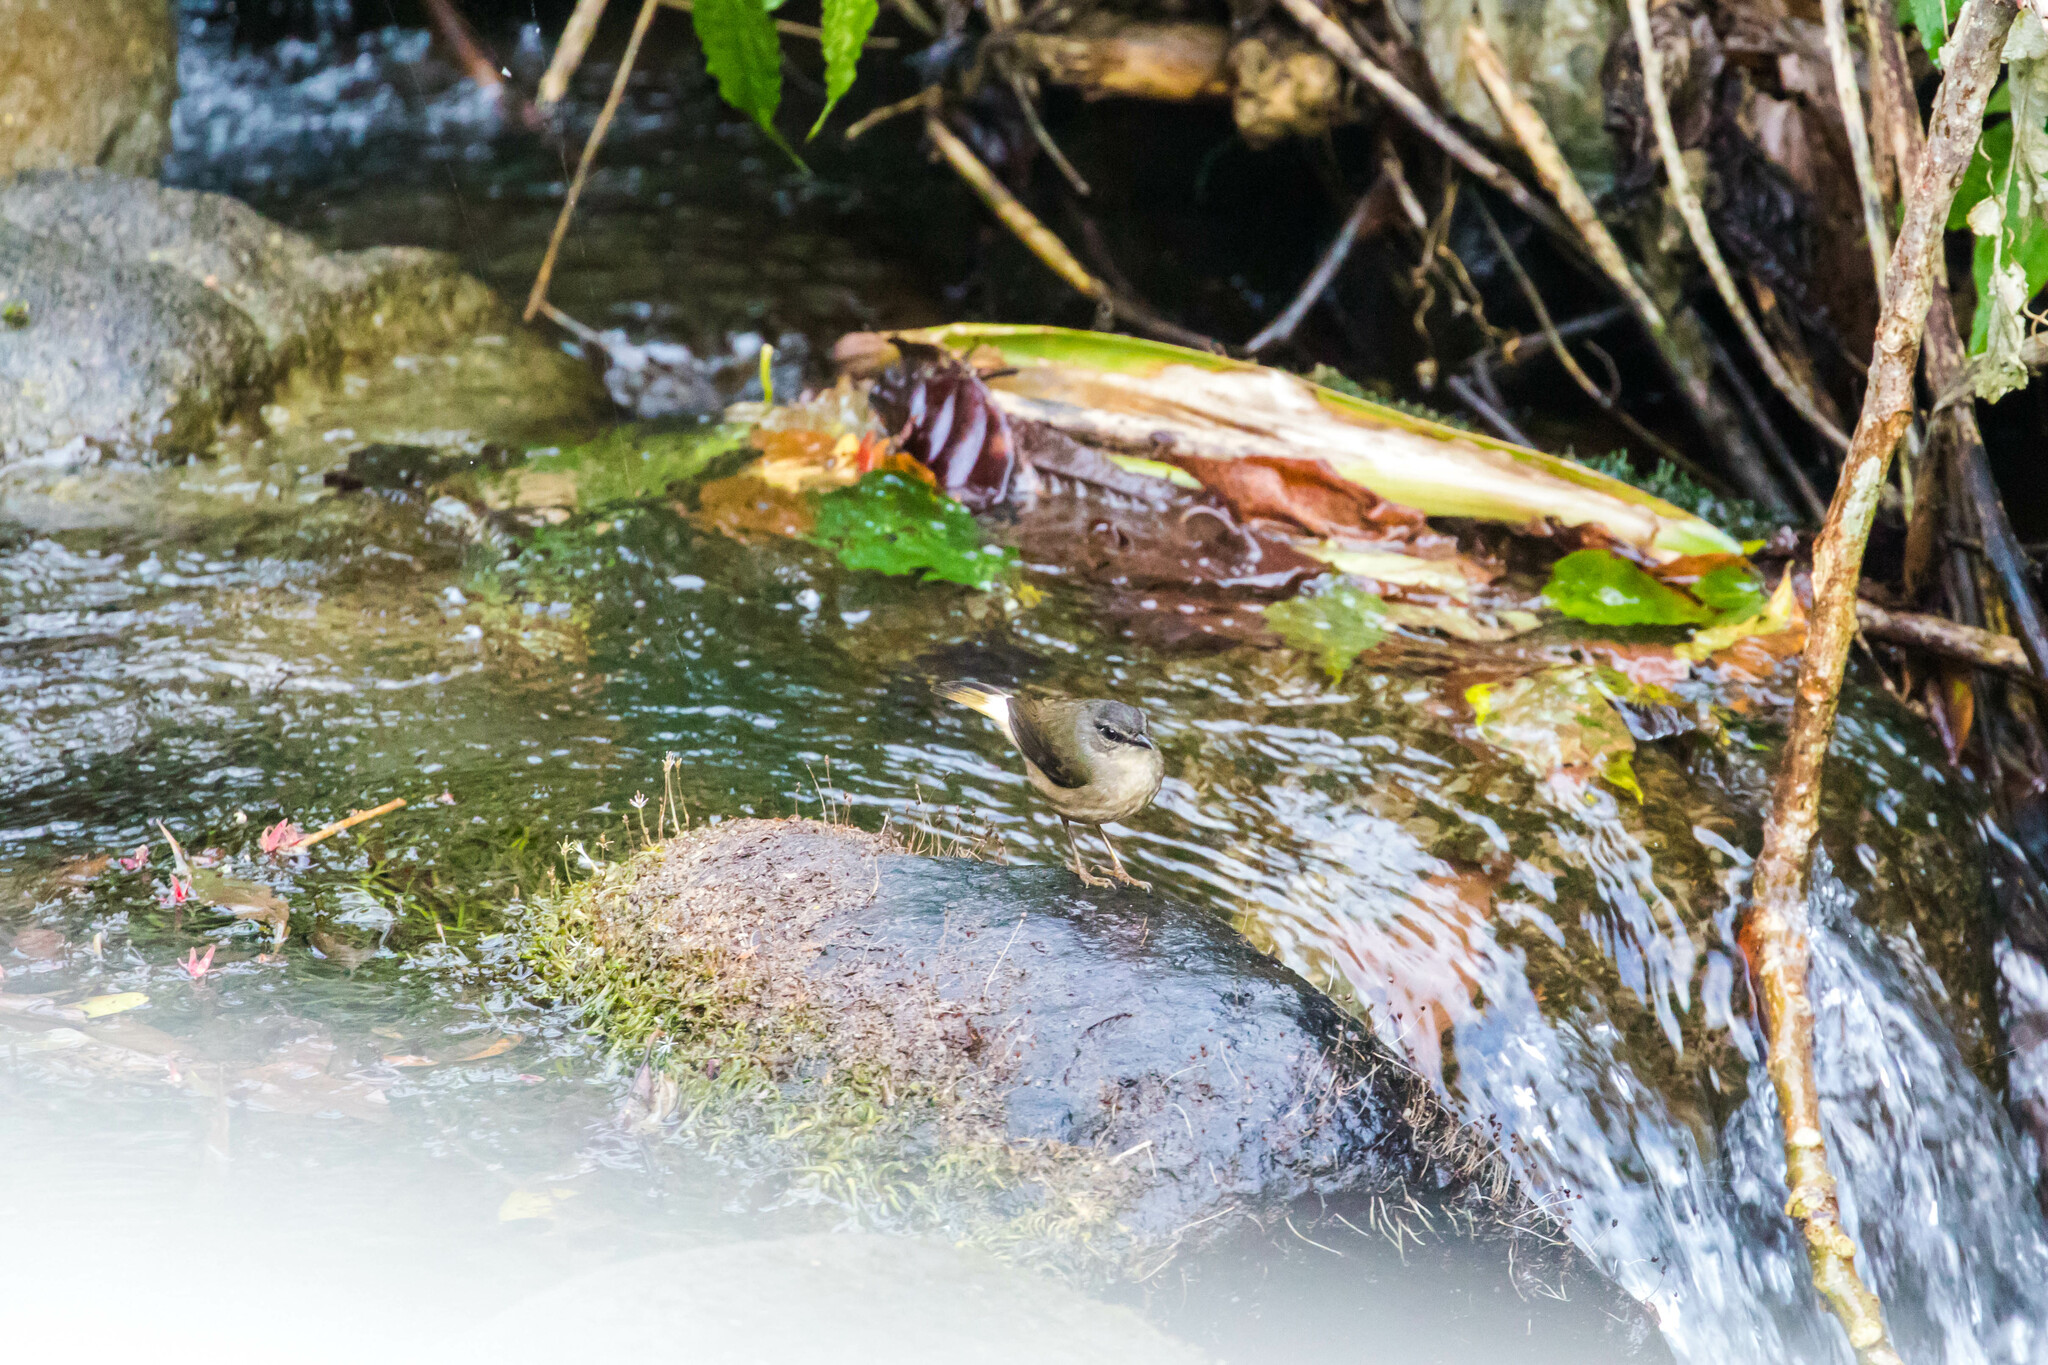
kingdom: Animalia
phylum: Chordata
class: Aves
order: Passeriformes
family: Parulidae
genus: Myiothlypis
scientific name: Myiothlypis fulvicauda
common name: Buff-rumped warbler
